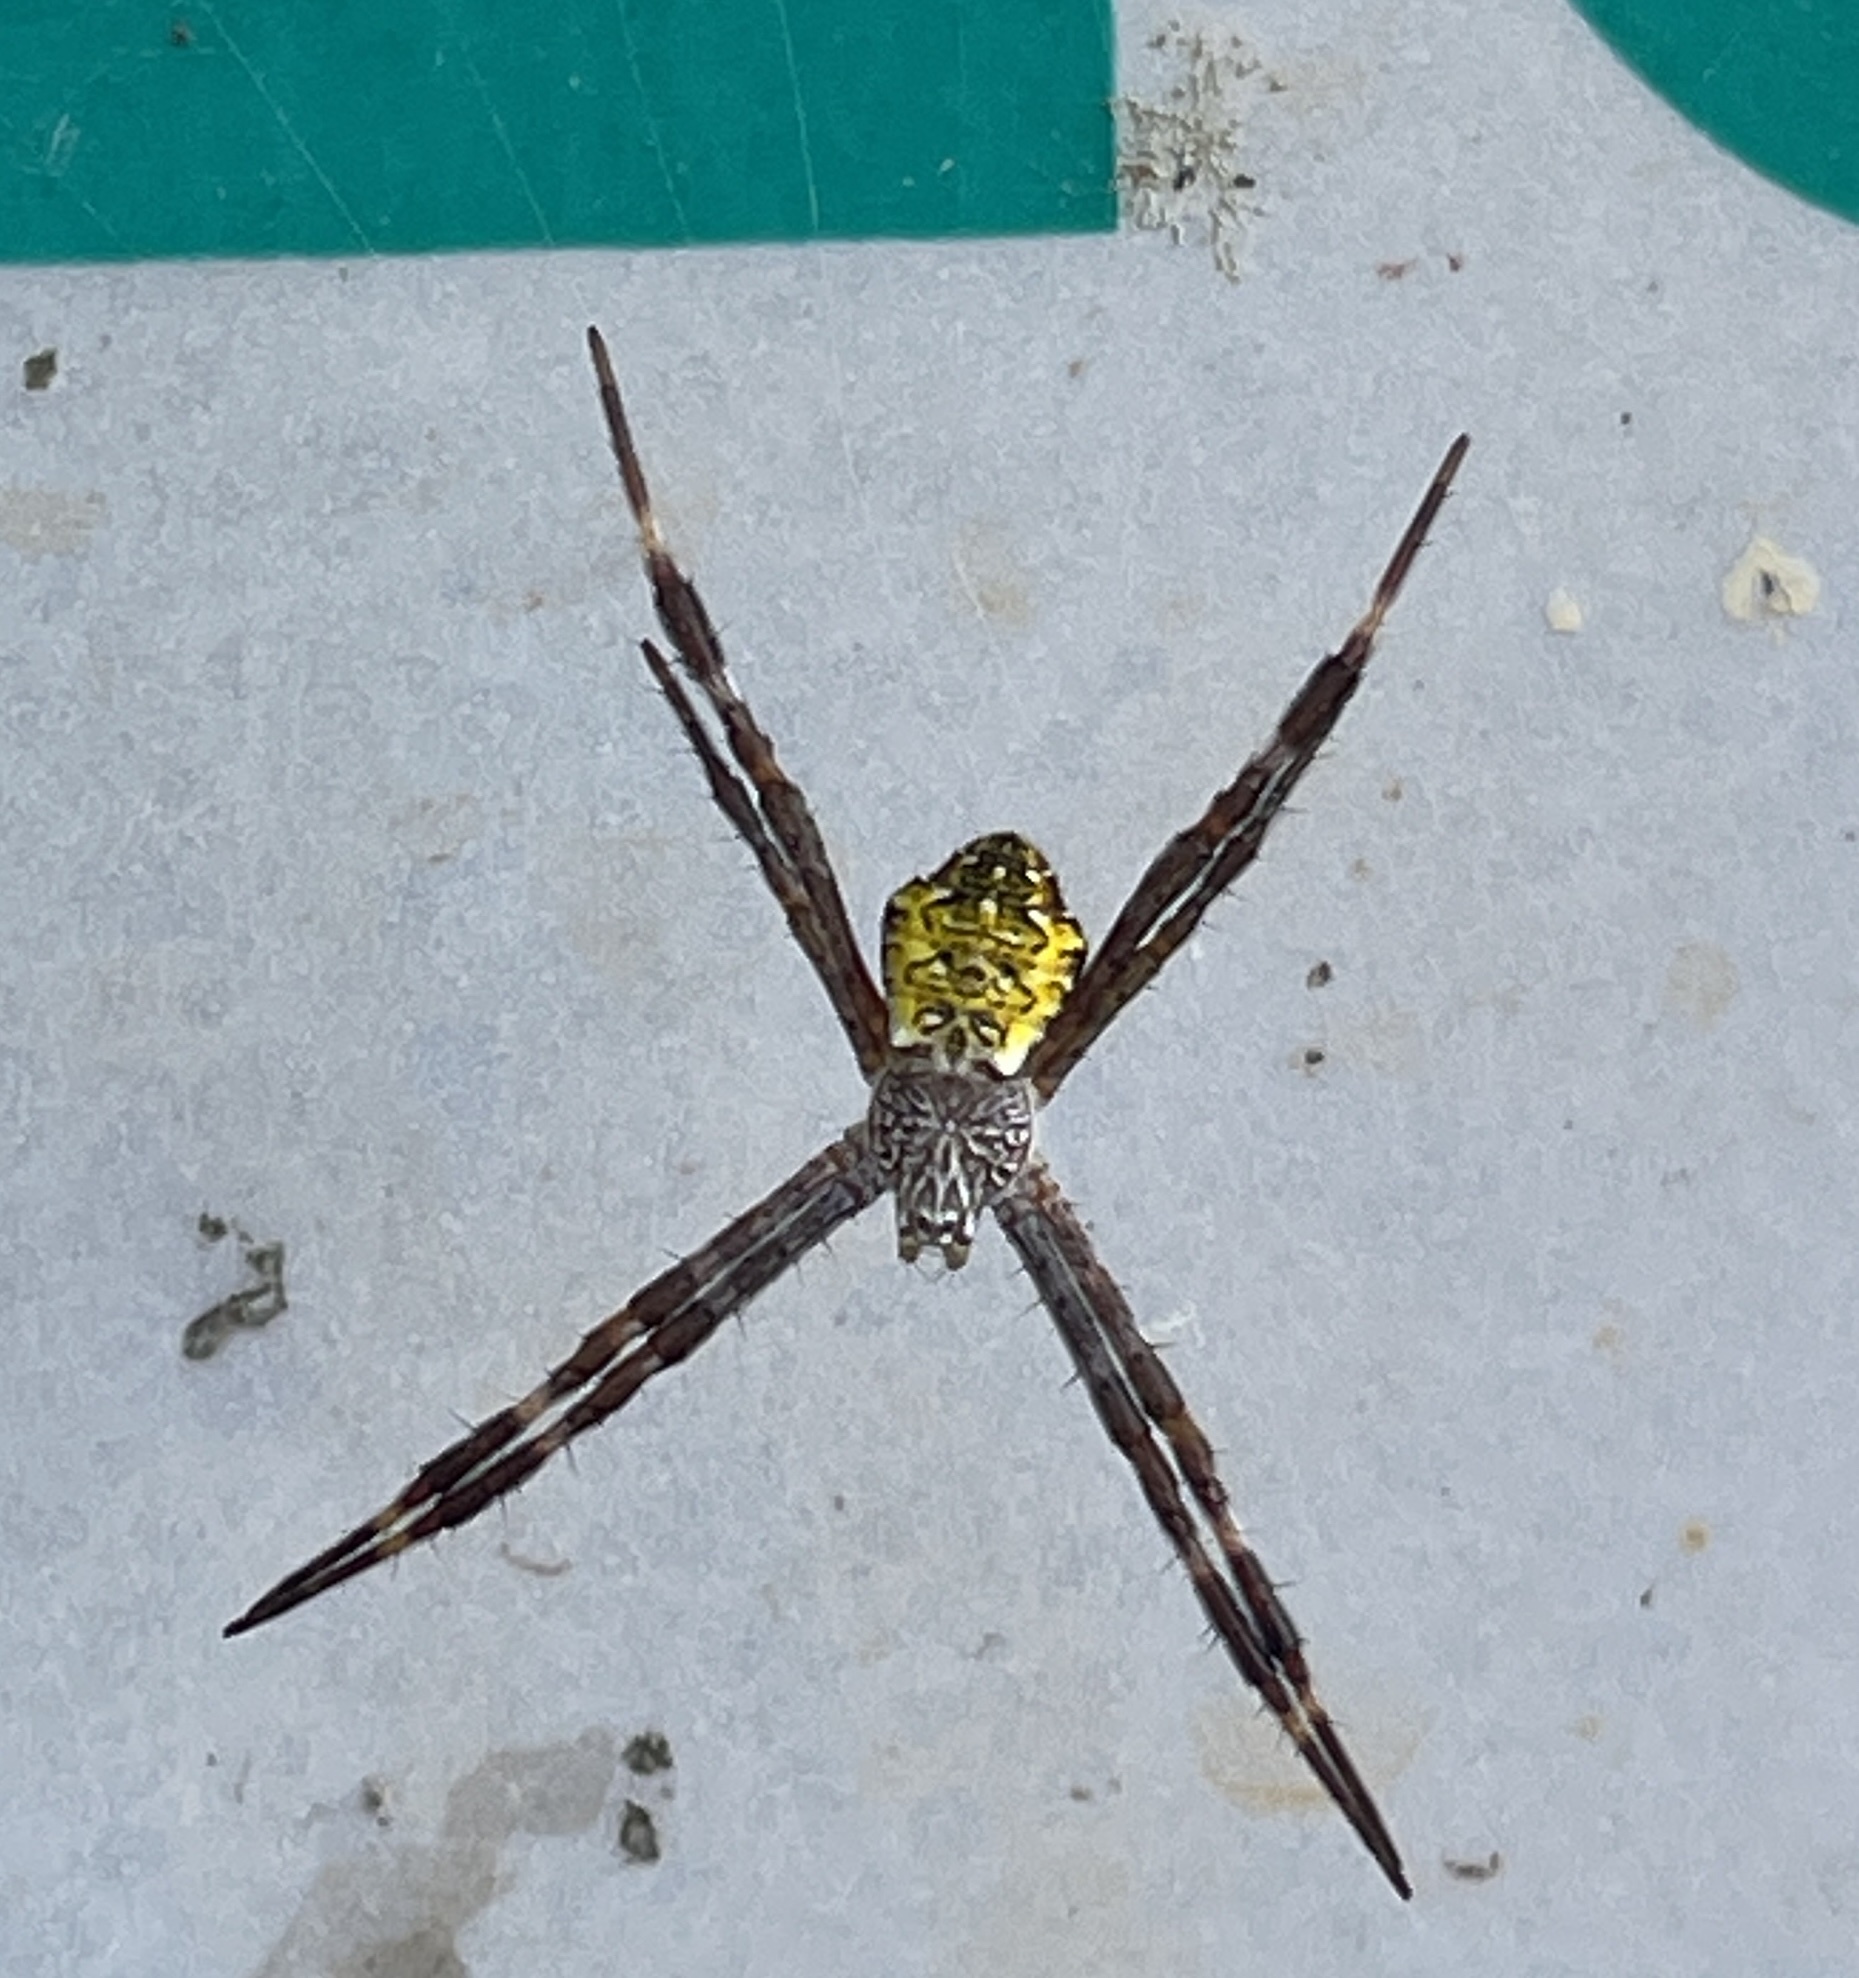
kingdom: Animalia
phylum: Arthropoda
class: Arachnida
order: Araneae
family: Araneidae
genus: Argiope
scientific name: Argiope appensa
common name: Garden spider
